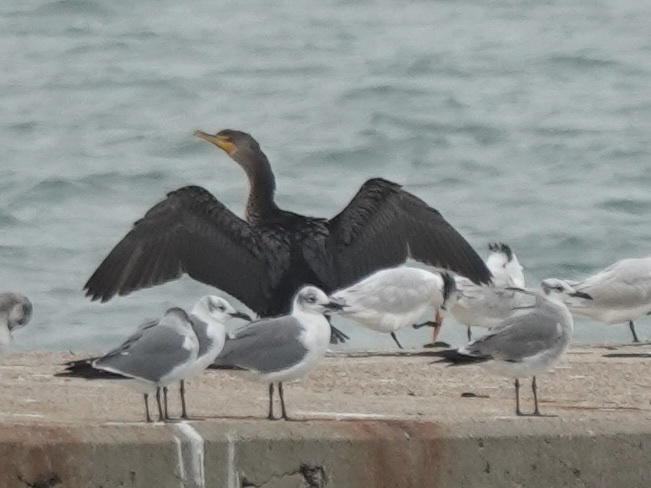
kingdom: Animalia
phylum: Chordata
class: Aves
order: Suliformes
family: Phalacrocoracidae
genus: Phalacrocorax
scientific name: Phalacrocorax auritus
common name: Double-crested cormorant
